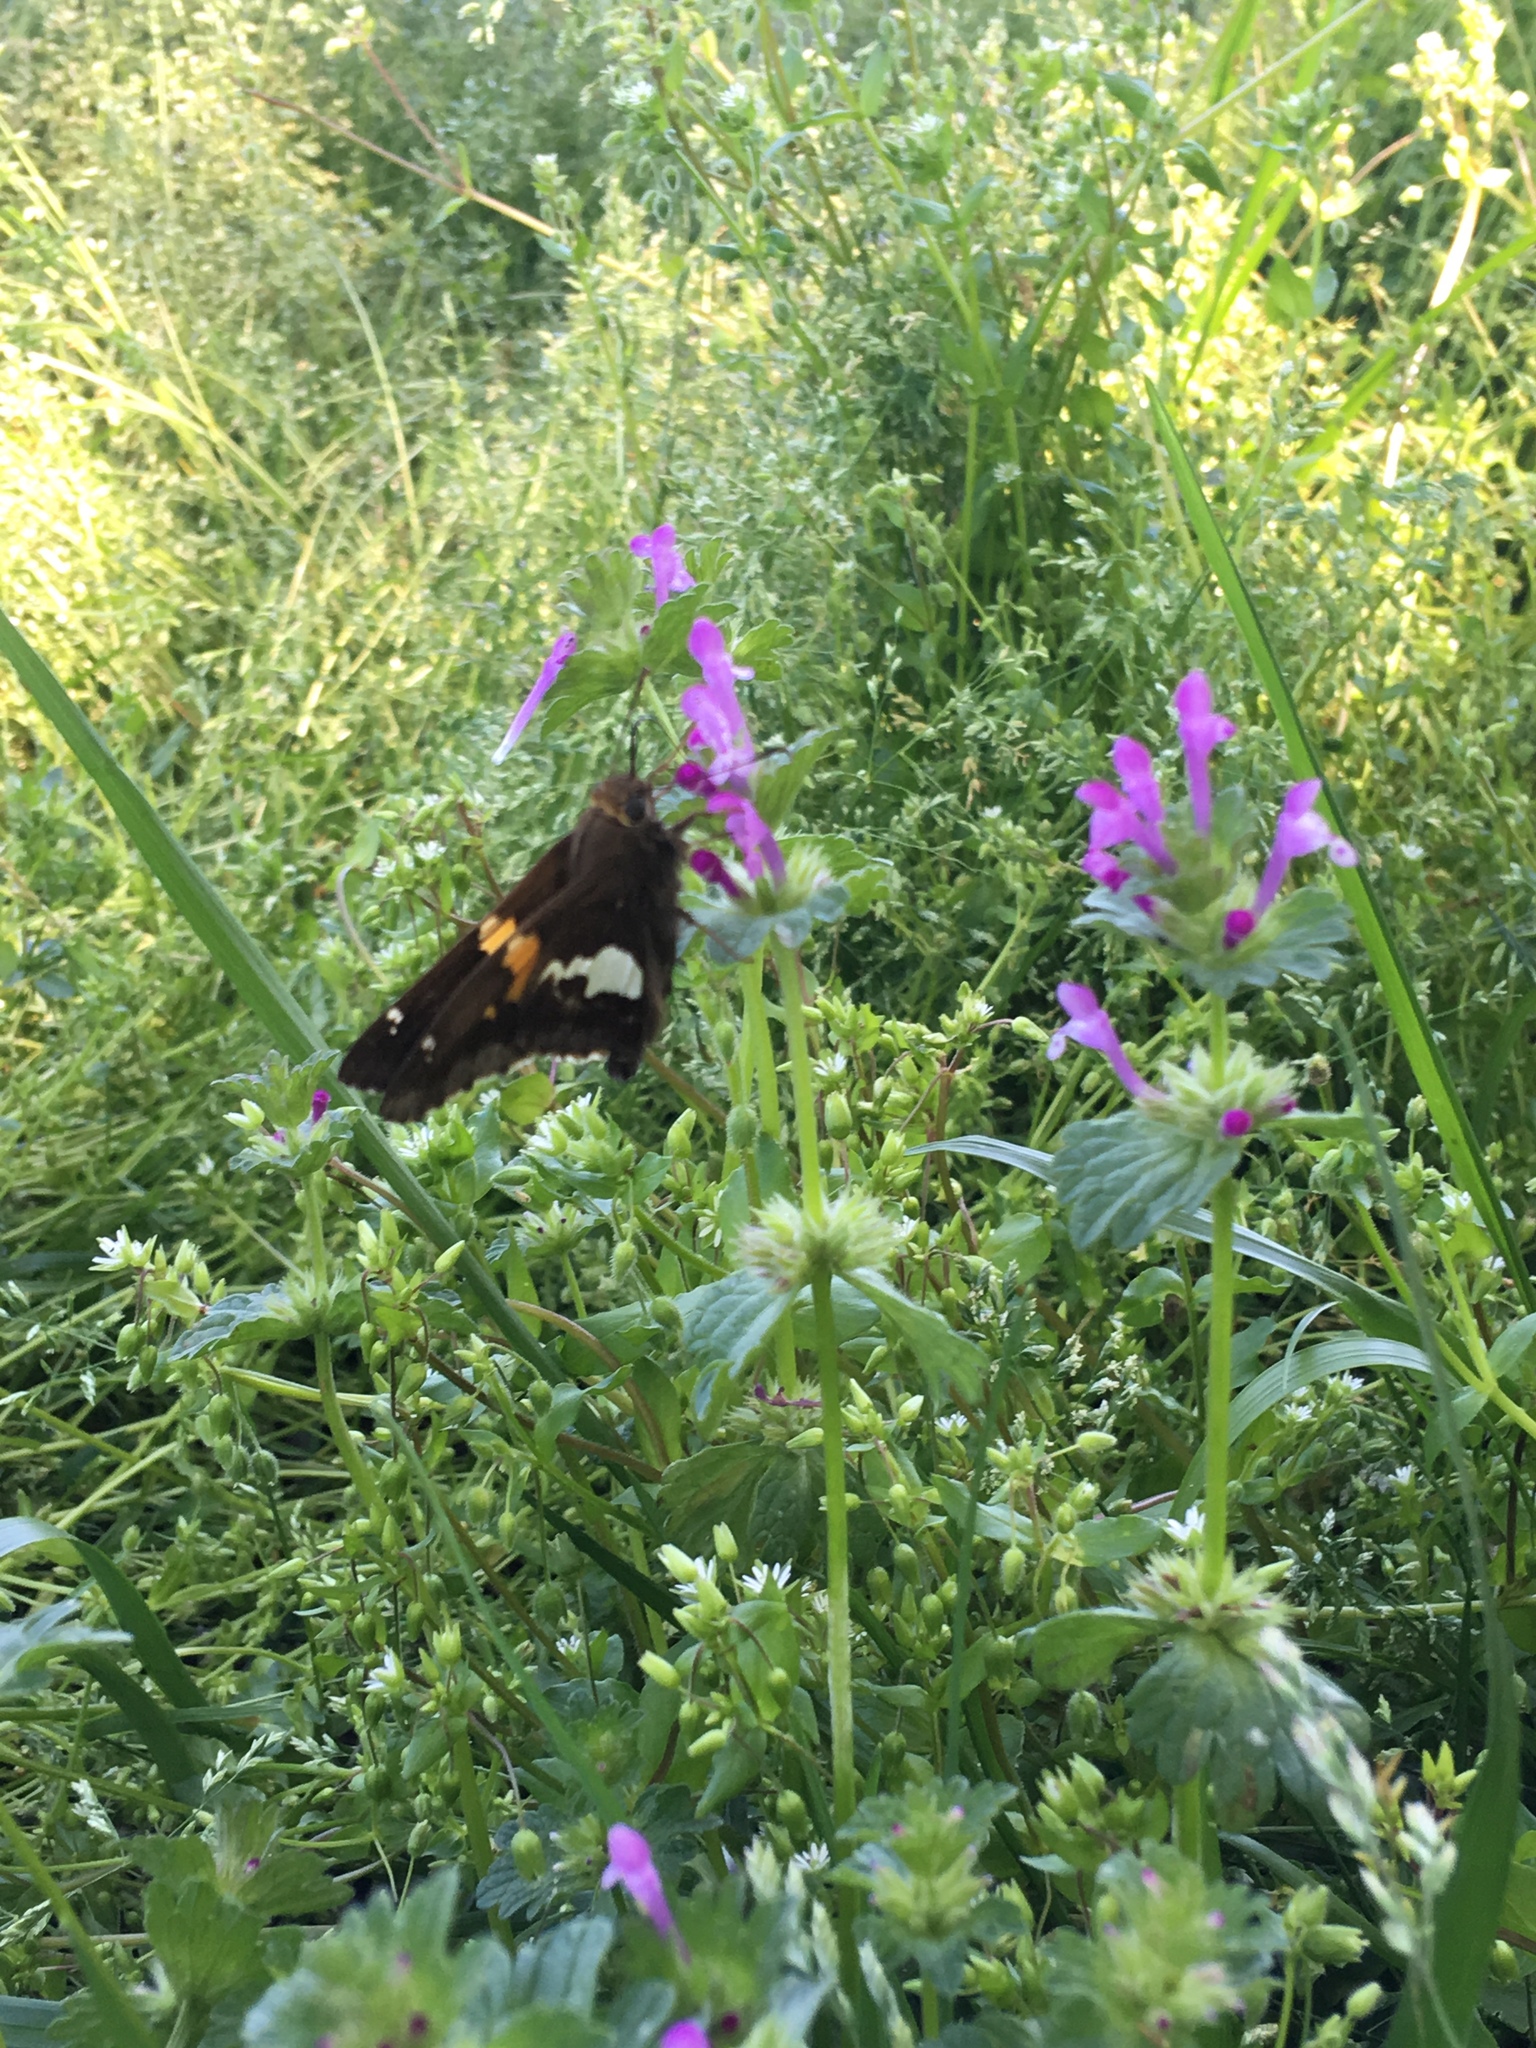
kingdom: Animalia
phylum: Arthropoda
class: Insecta
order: Lepidoptera
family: Hesperiidae
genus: Epargyreus
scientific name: Epargyreus clarus
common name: Silver-spotted skipper
